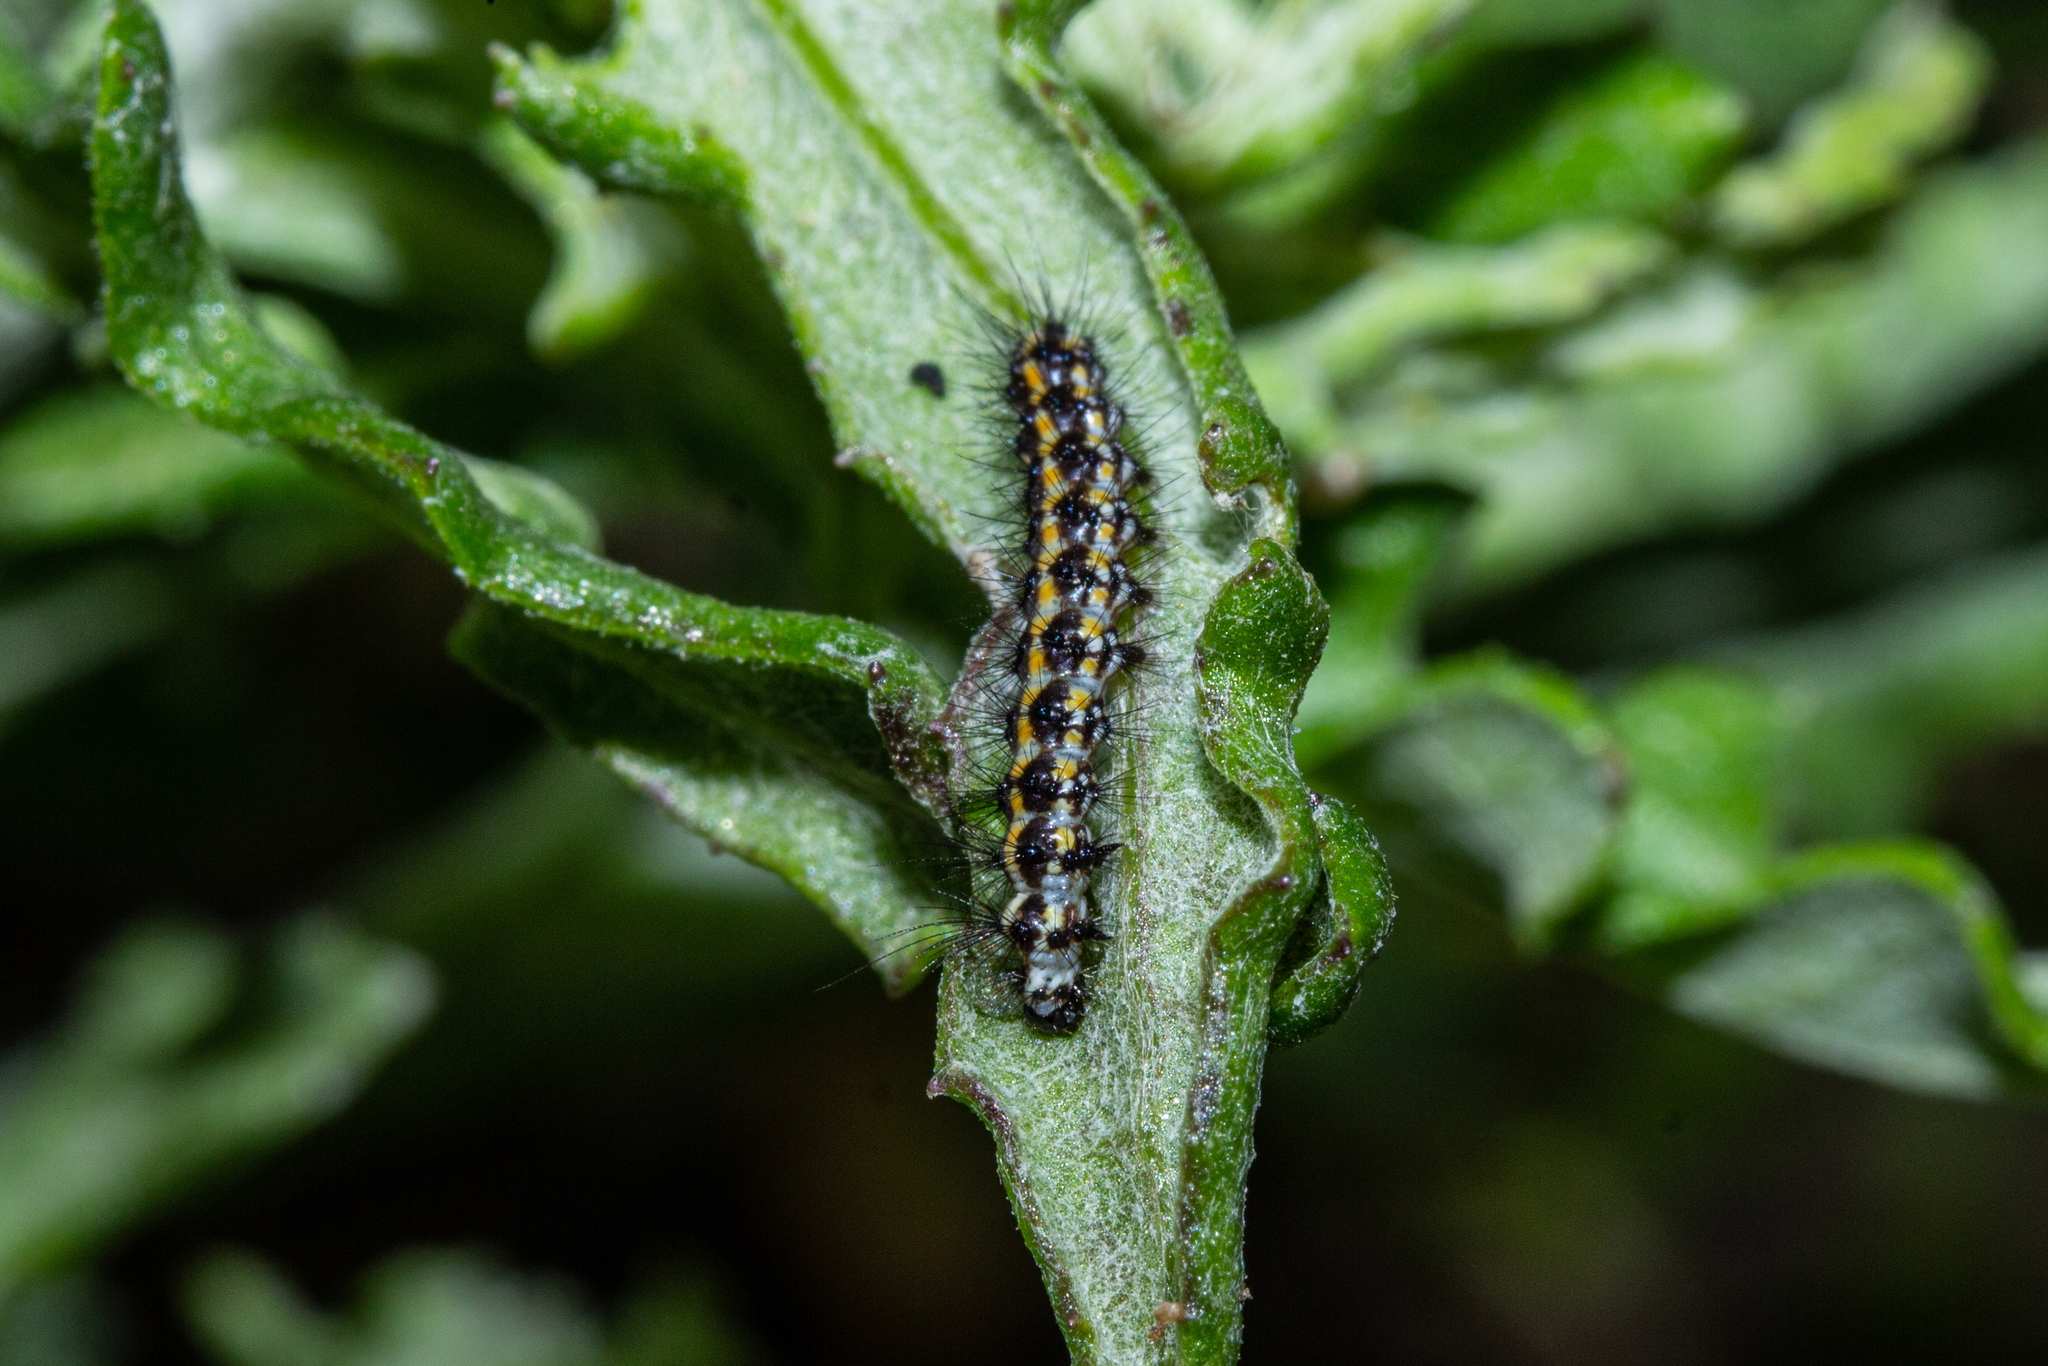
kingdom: Animalia
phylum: Arthropoda
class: Insecta
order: Lepidoptera
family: Erebidae
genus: Nyctemera
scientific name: Nyctemera annulatum
